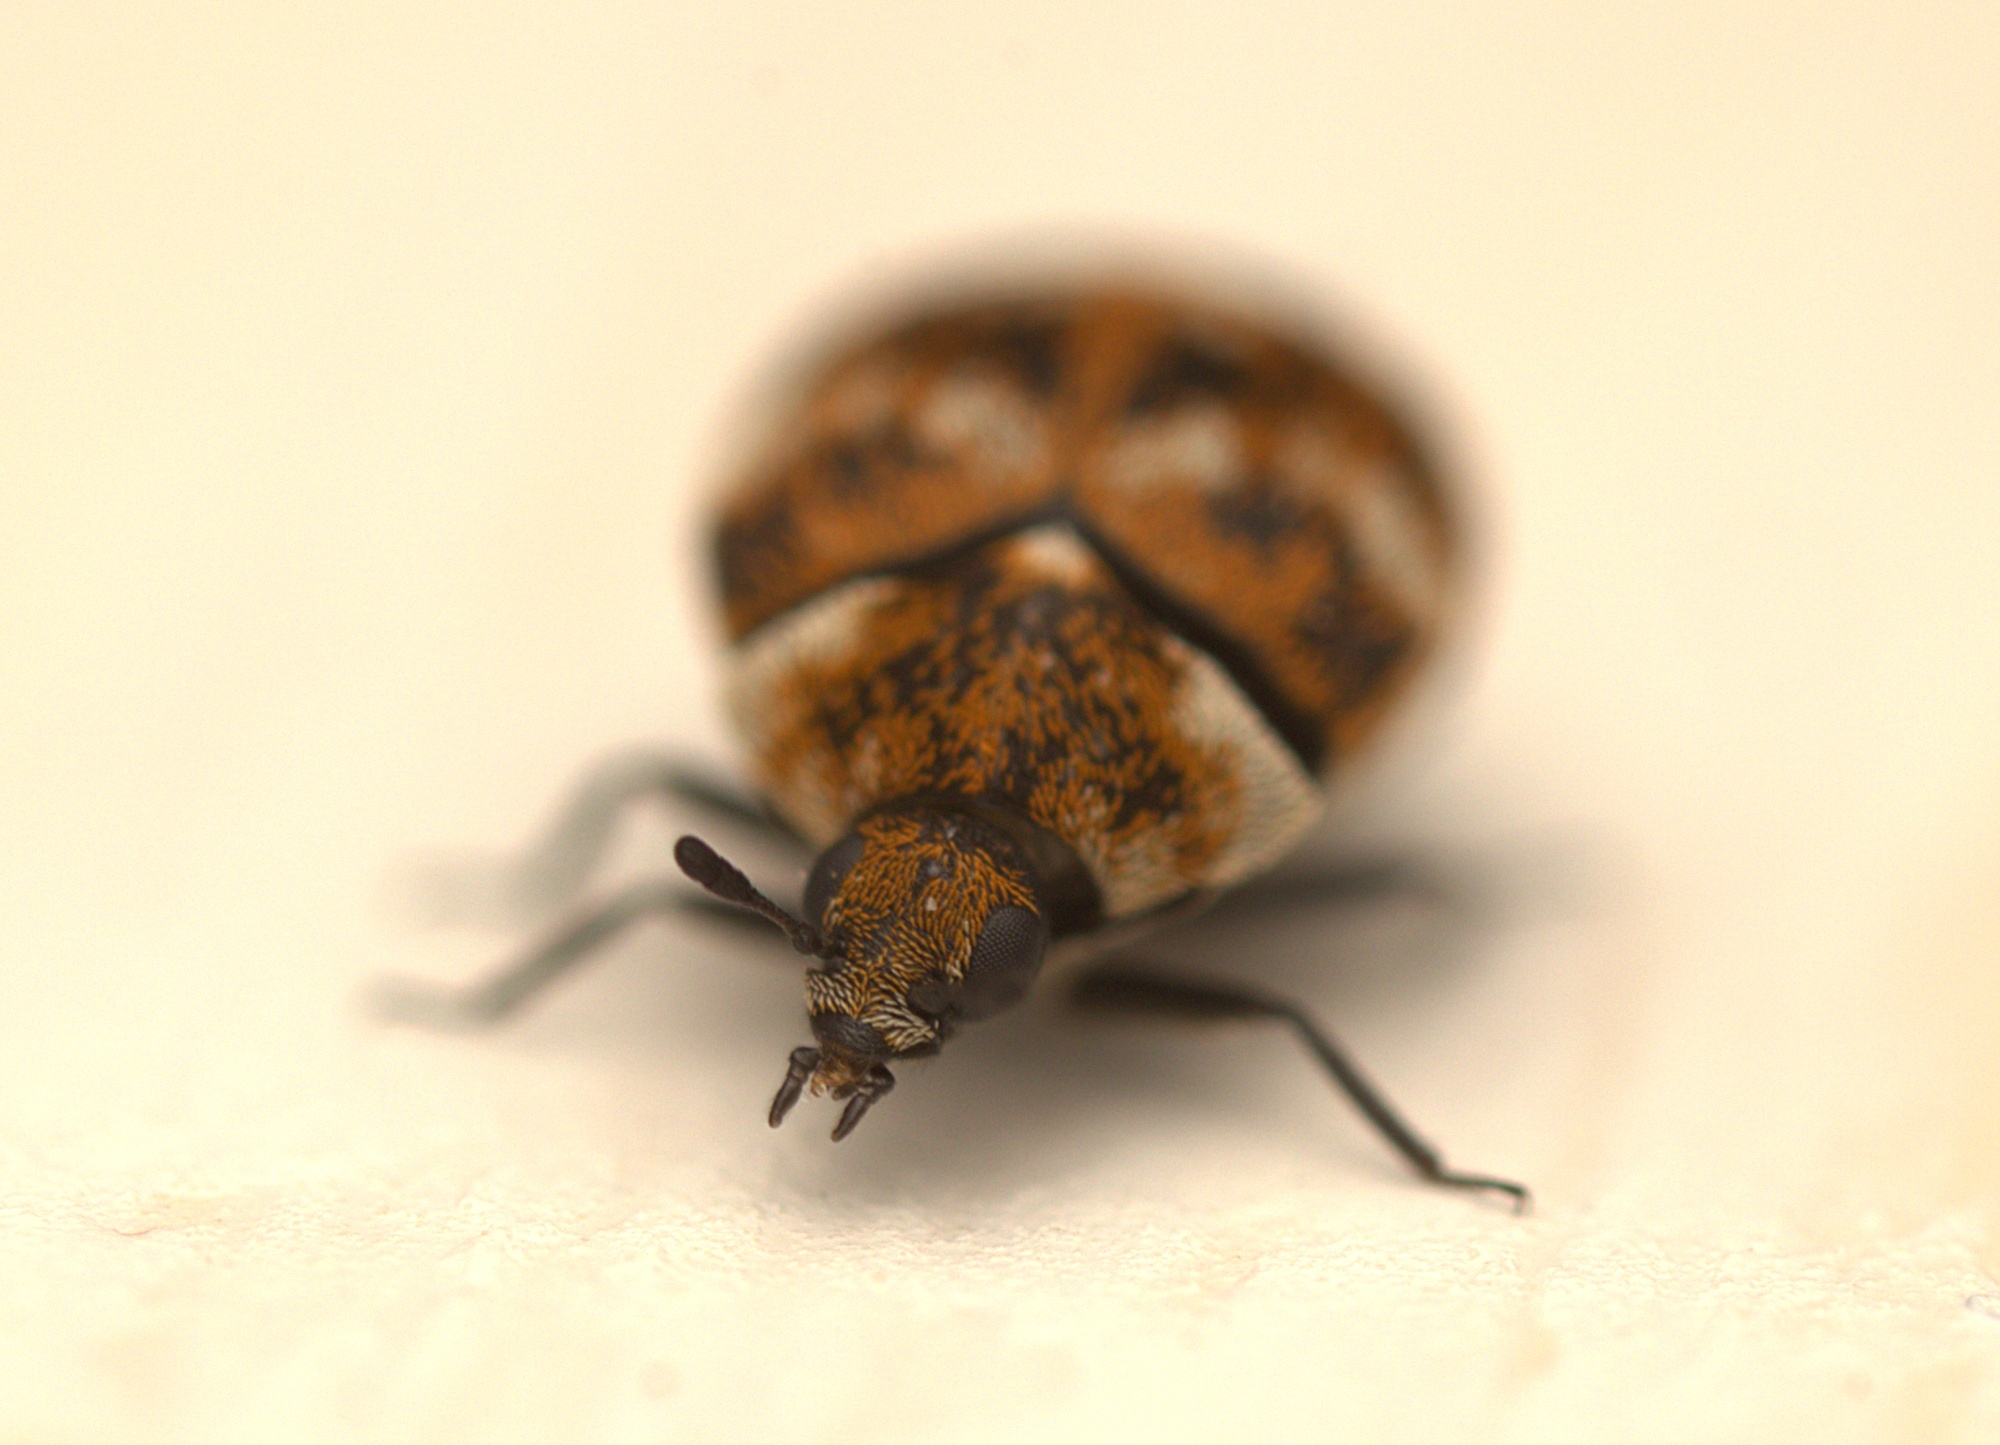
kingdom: Animalia
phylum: Arthropoda
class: Insecta
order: Coleoptera
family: Dermestidae
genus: Anthrenus
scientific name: Anthrenus verbasci
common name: Varied carpet beetle
